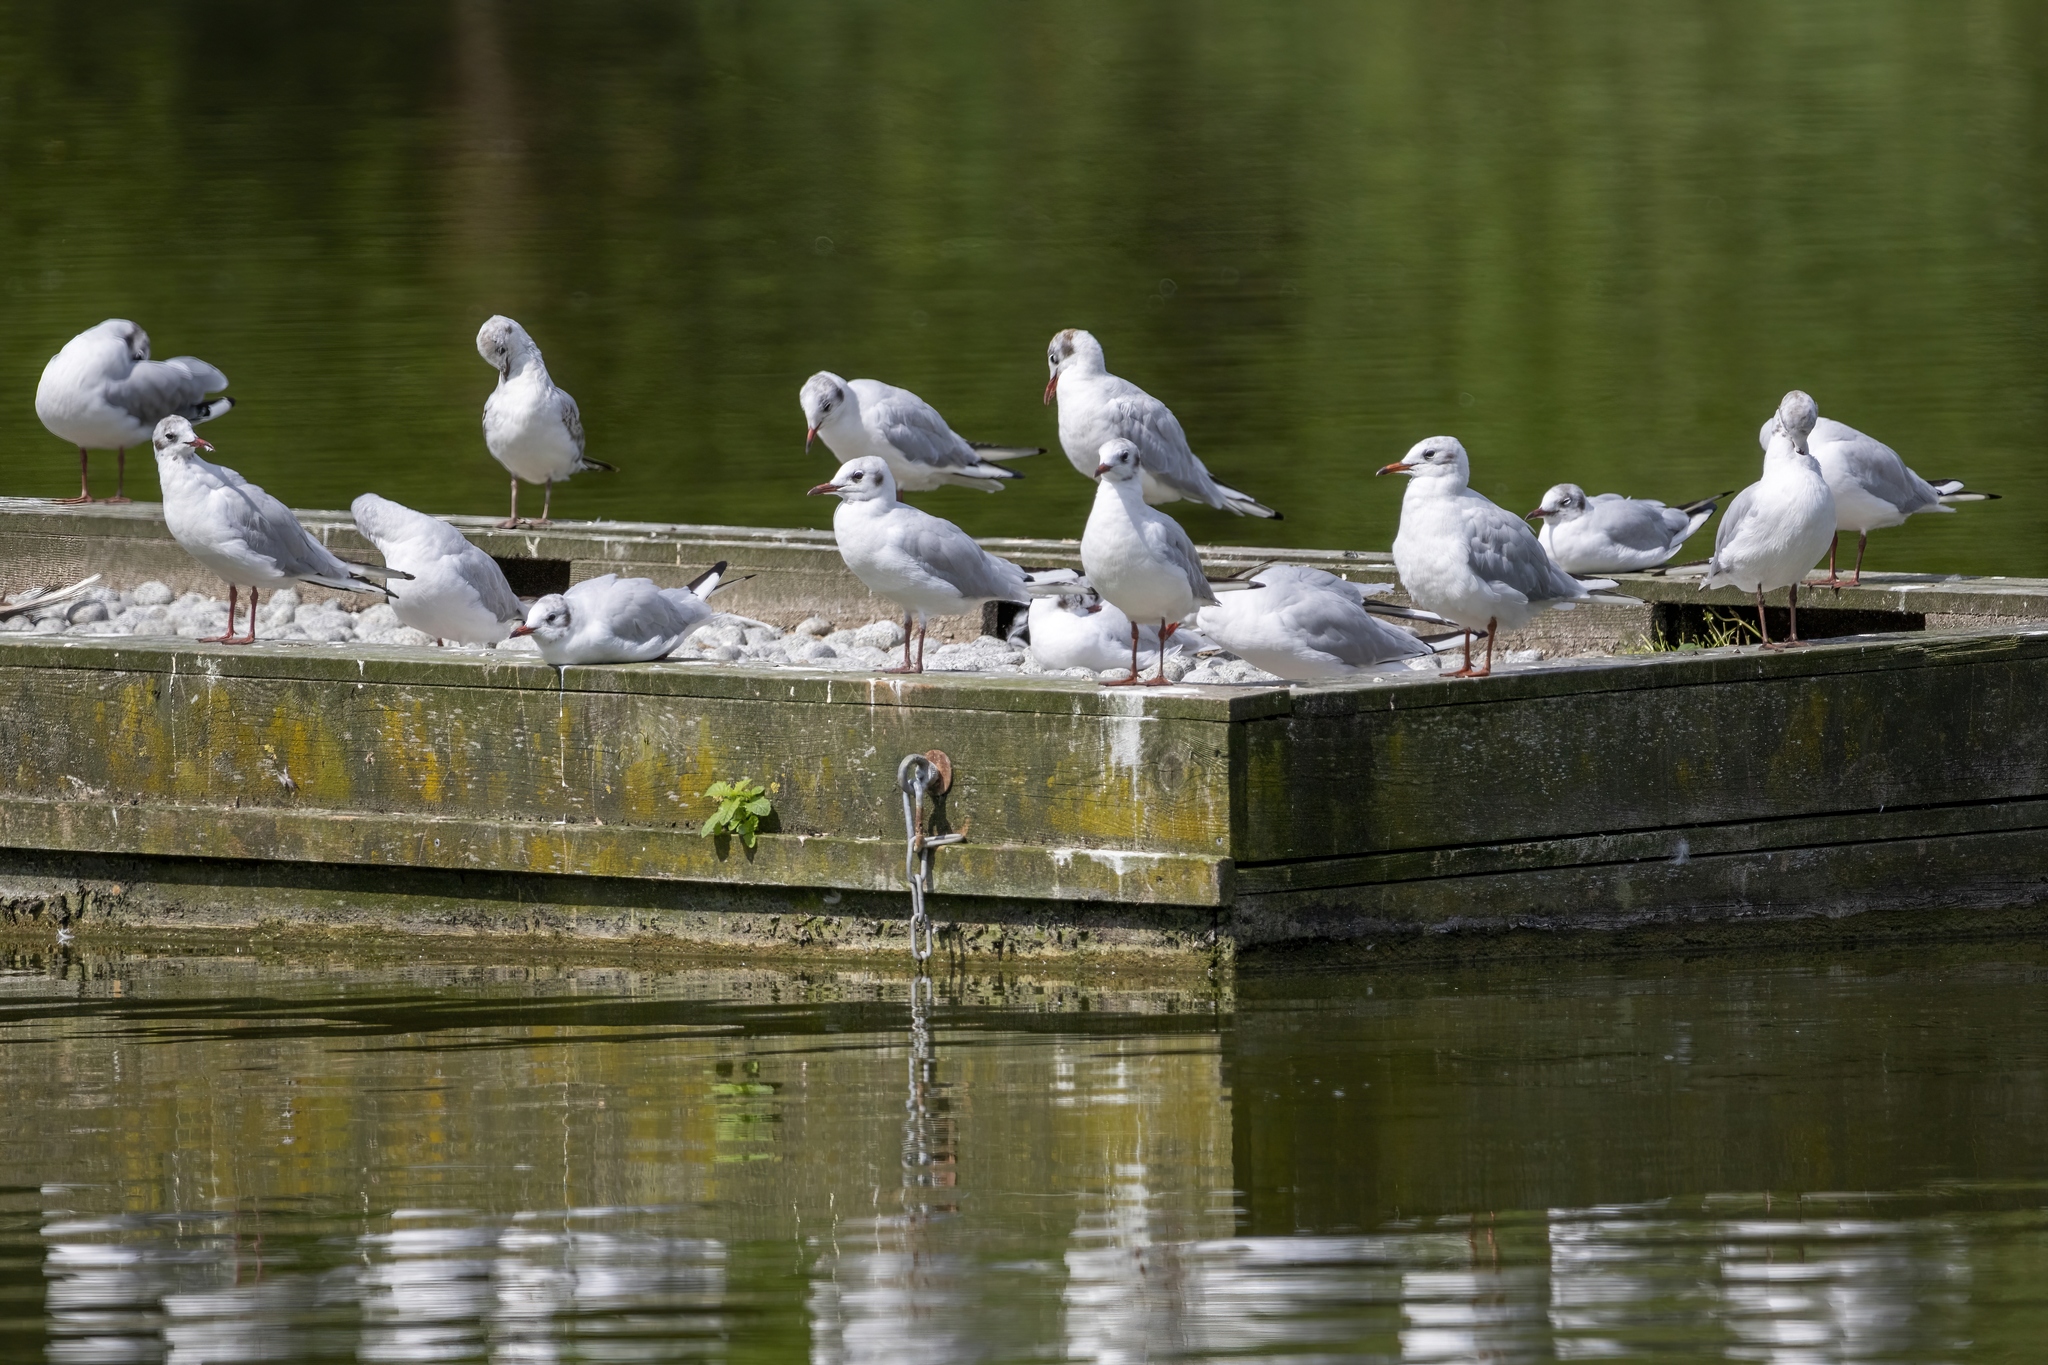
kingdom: Animalia
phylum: Chordata
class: Aves
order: Charadriiformes
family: Laridae
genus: Chroicocephalus
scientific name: Chroicocephalus ridibundus
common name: Black-headed gull
